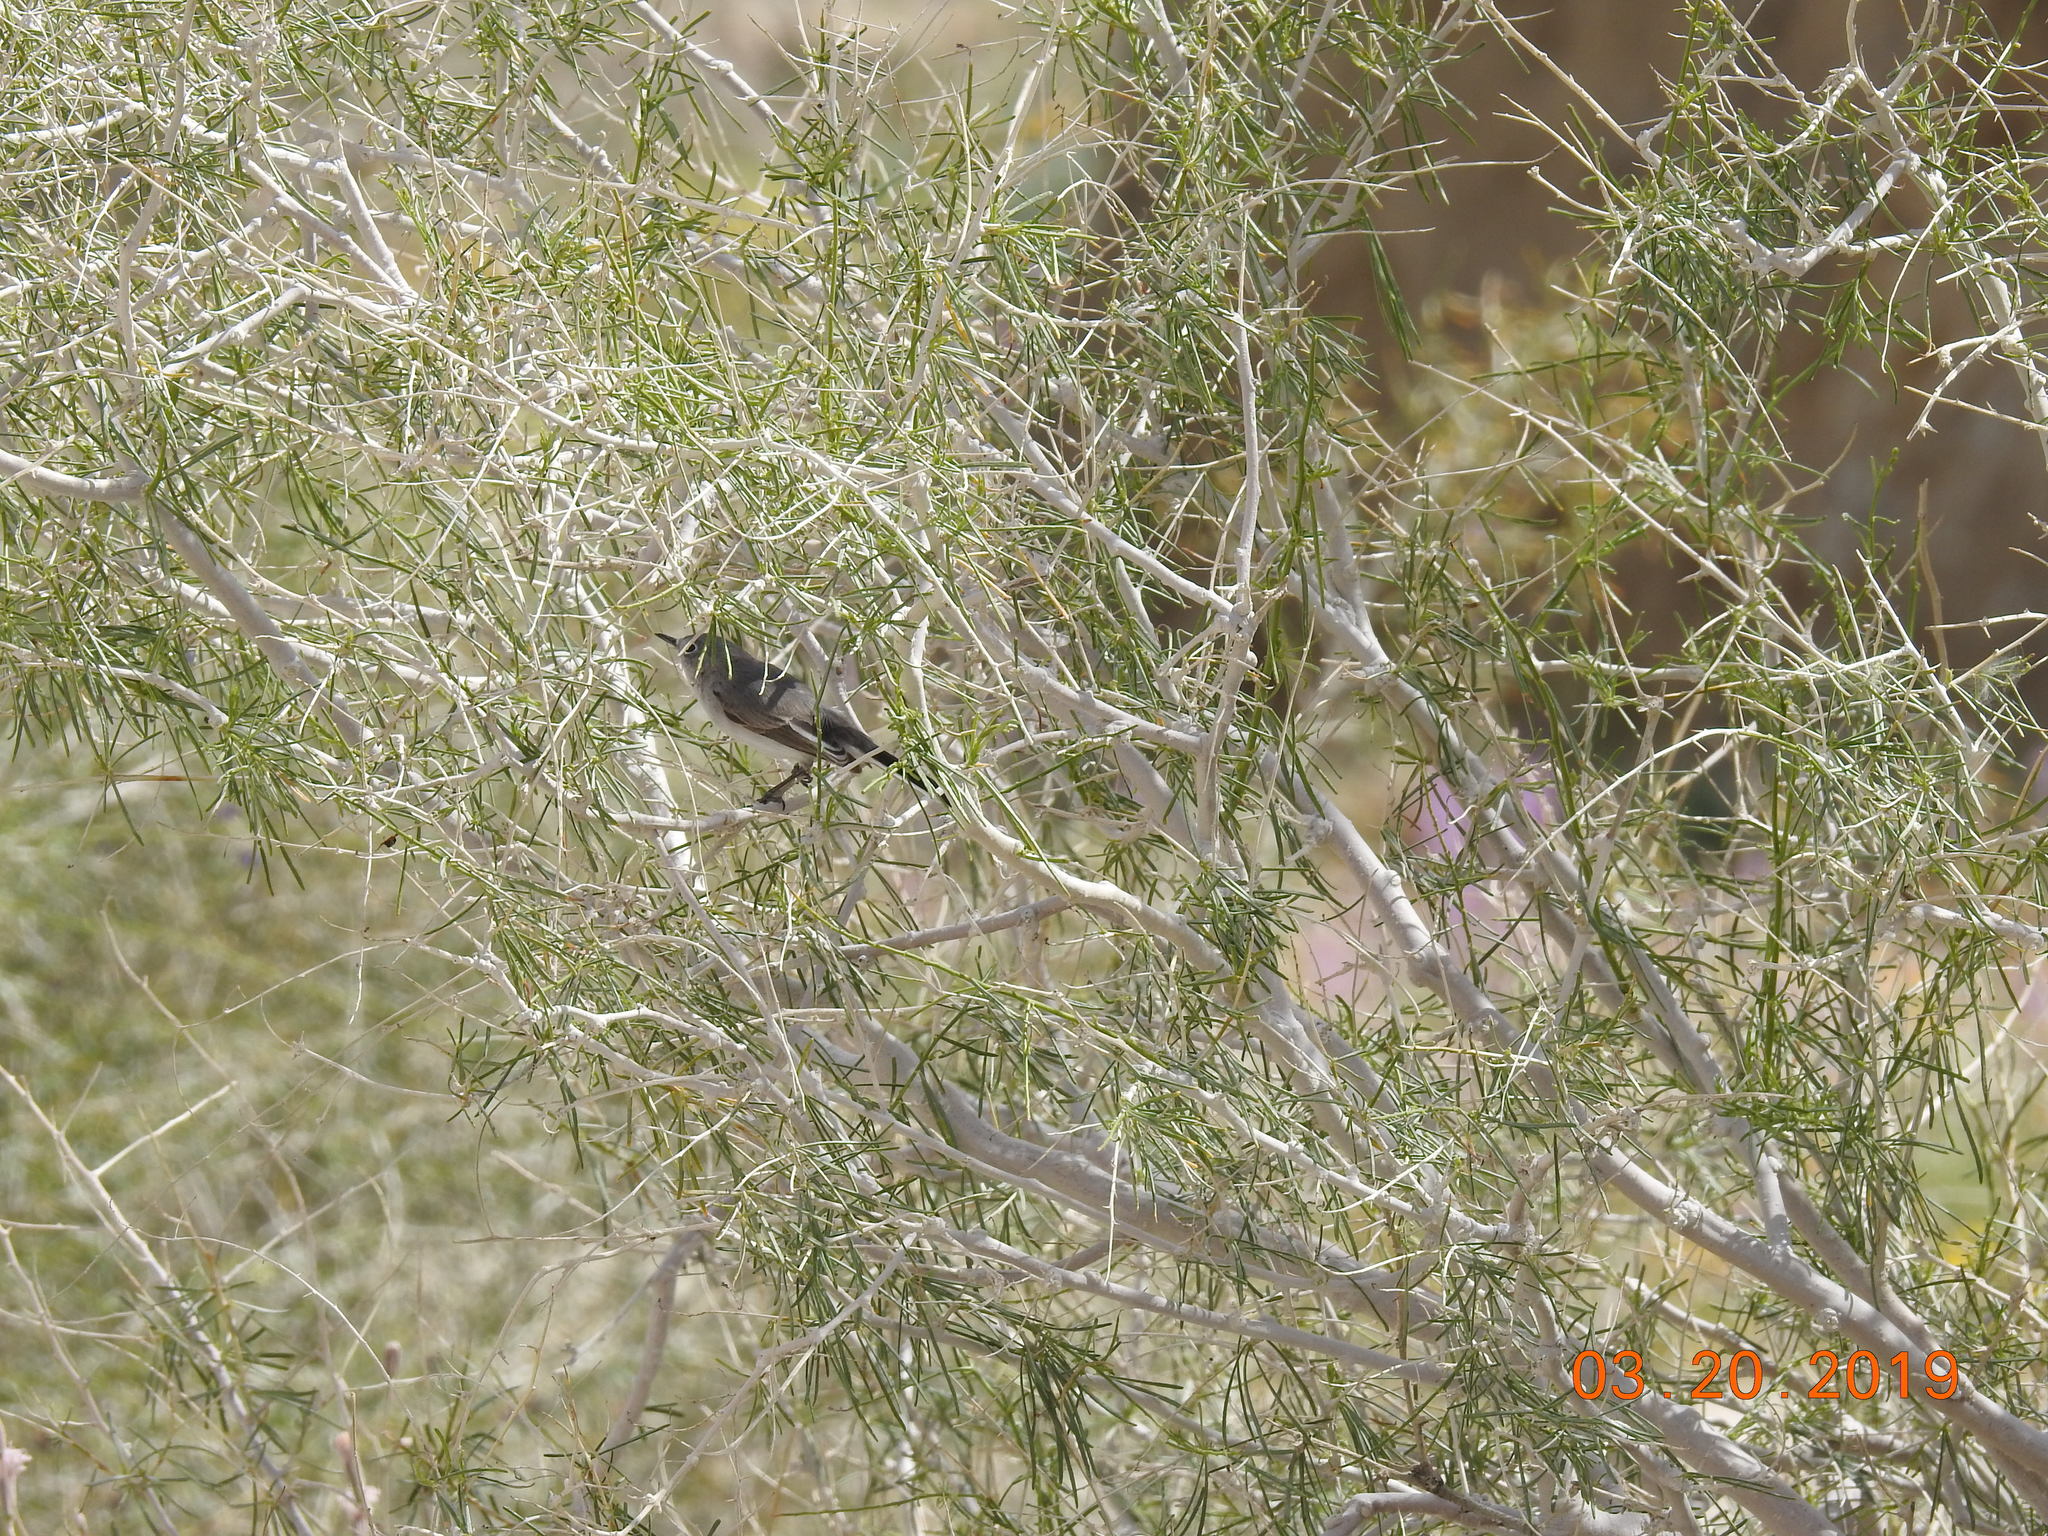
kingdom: Animalia
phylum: Chordata
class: Aves
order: Passeriformes
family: Polioptilidae
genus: Polioptila
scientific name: Polioptila caerulea
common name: Blue-gray gnatcatcher
